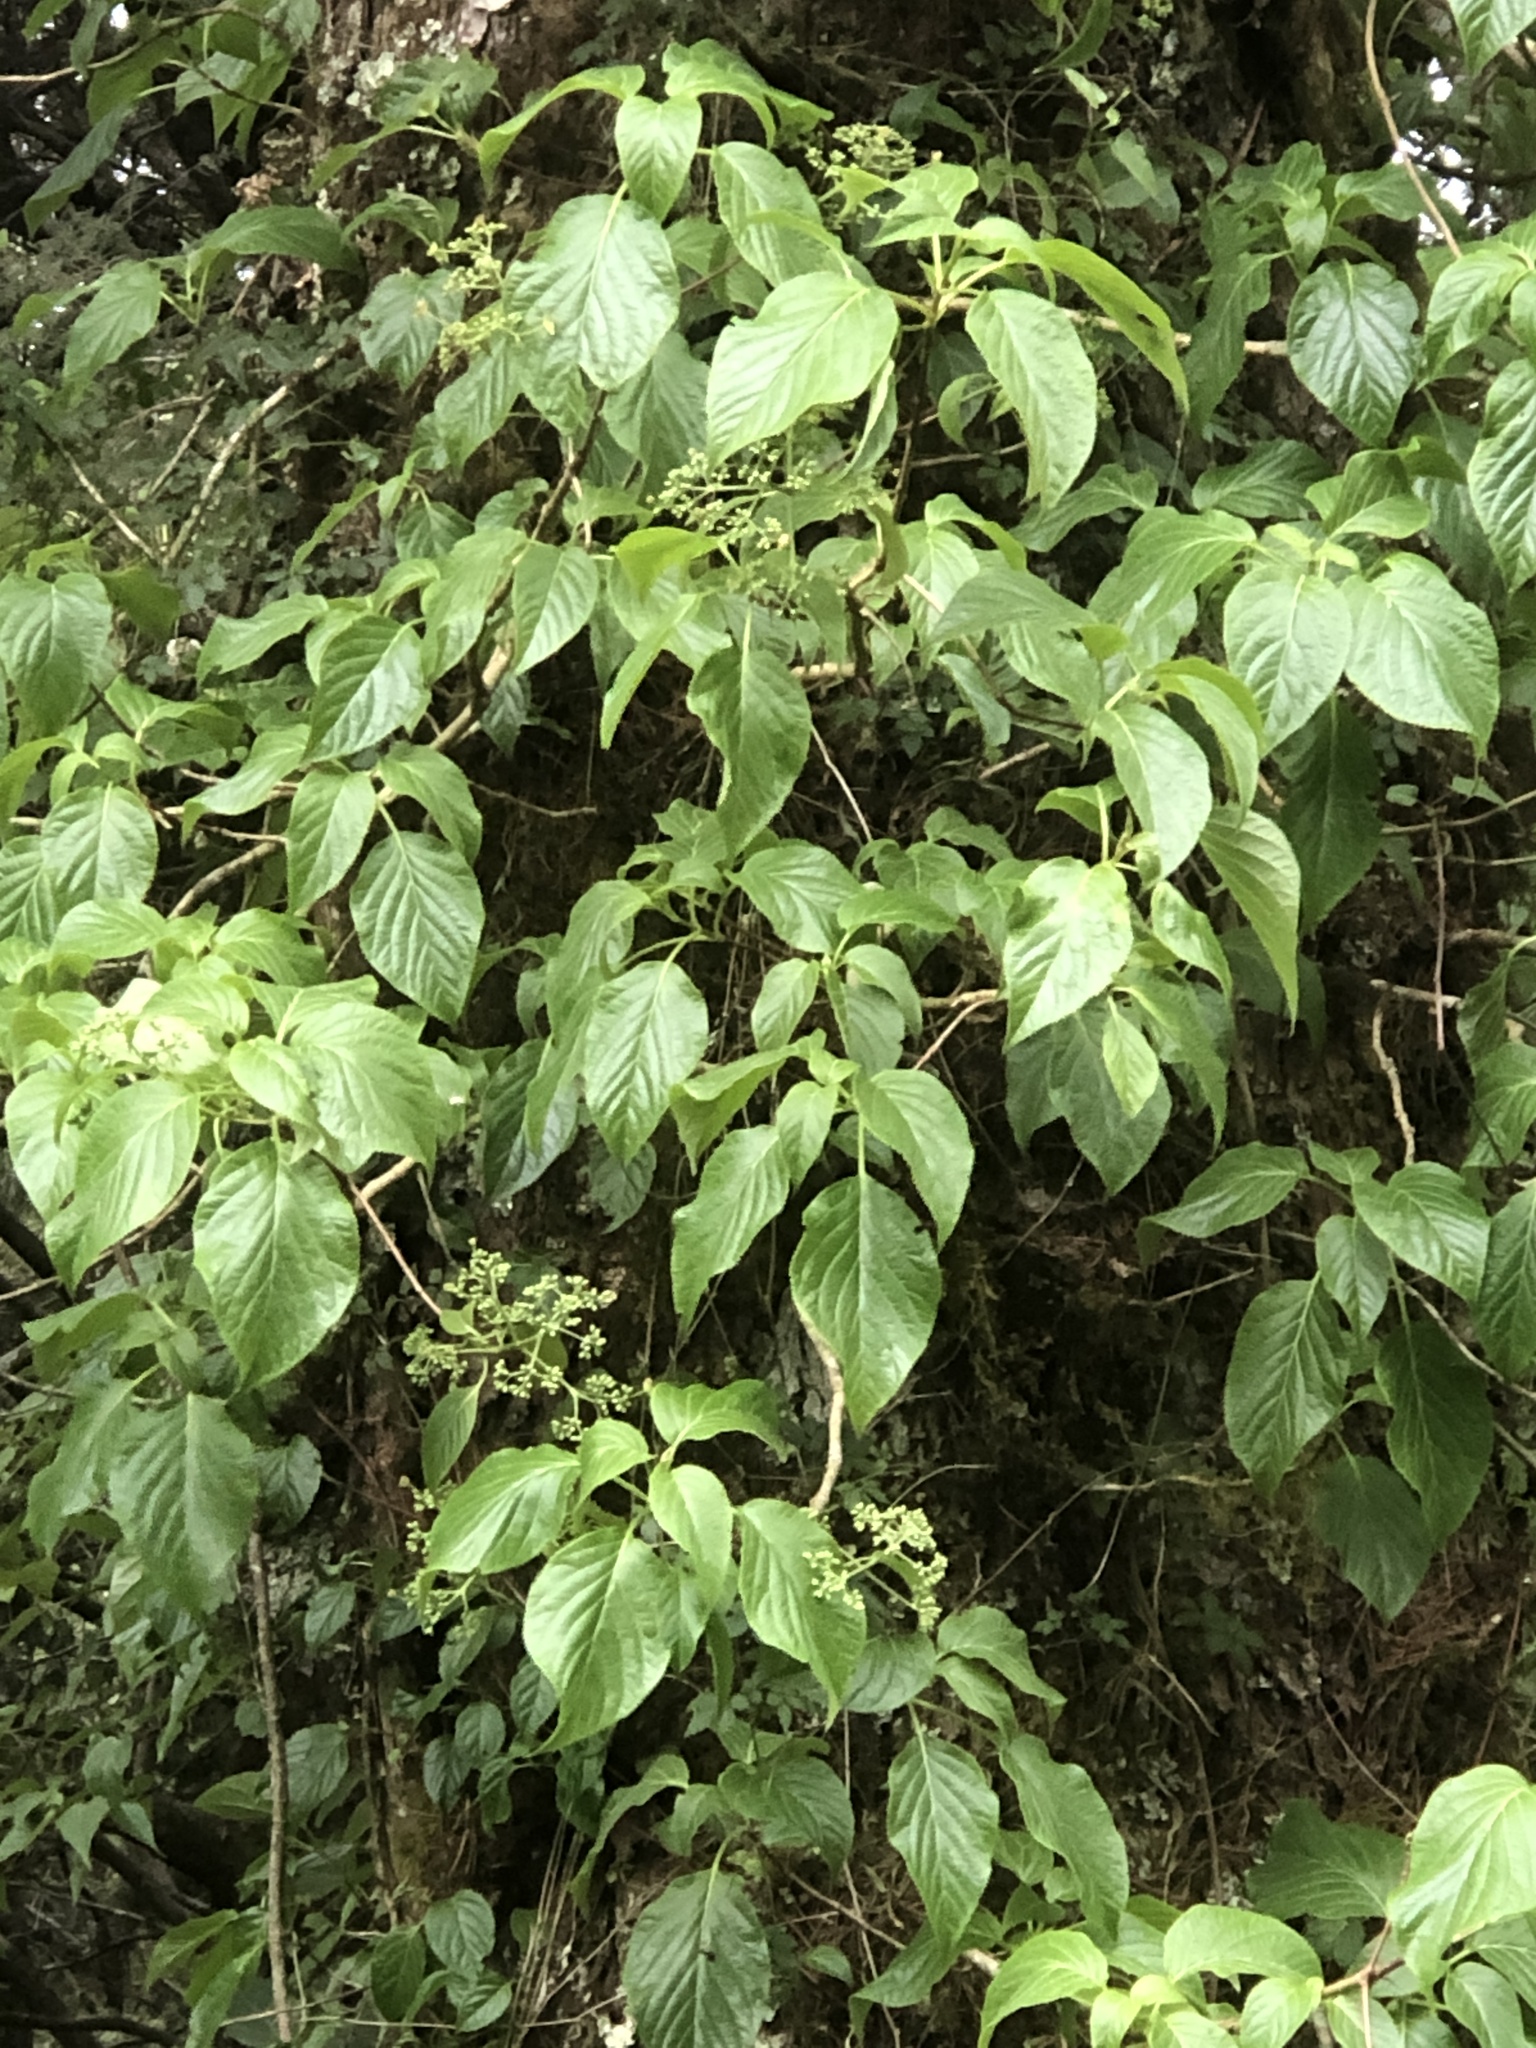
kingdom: Plantae
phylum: Tracheophyta
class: Magnoliopsida
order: Cornales
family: Cornaceae
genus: Cornus
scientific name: Cornus macrophylla
